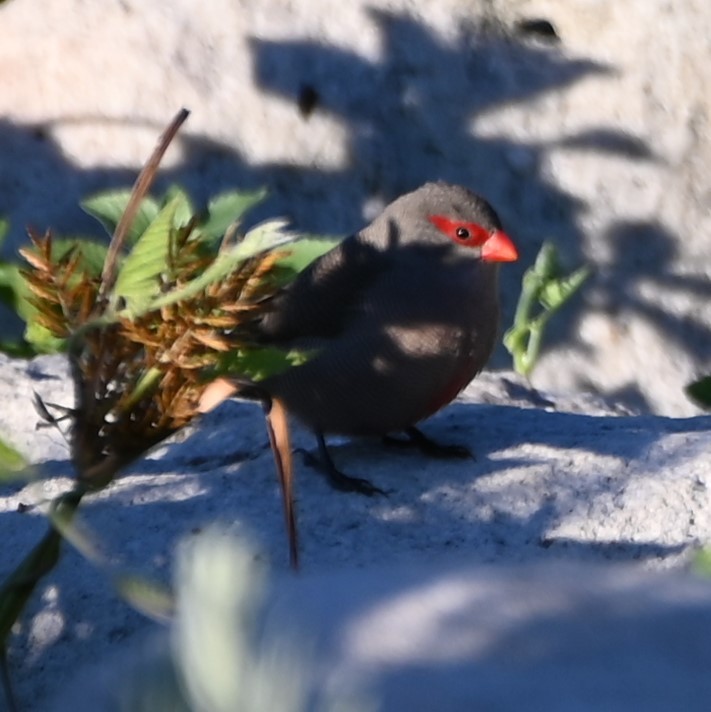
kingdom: Animalia
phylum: Chordata
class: Aves
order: Passeriformes
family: Estrildidae
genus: Estrilda
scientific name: Estrilda astrild
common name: Common waxbill
